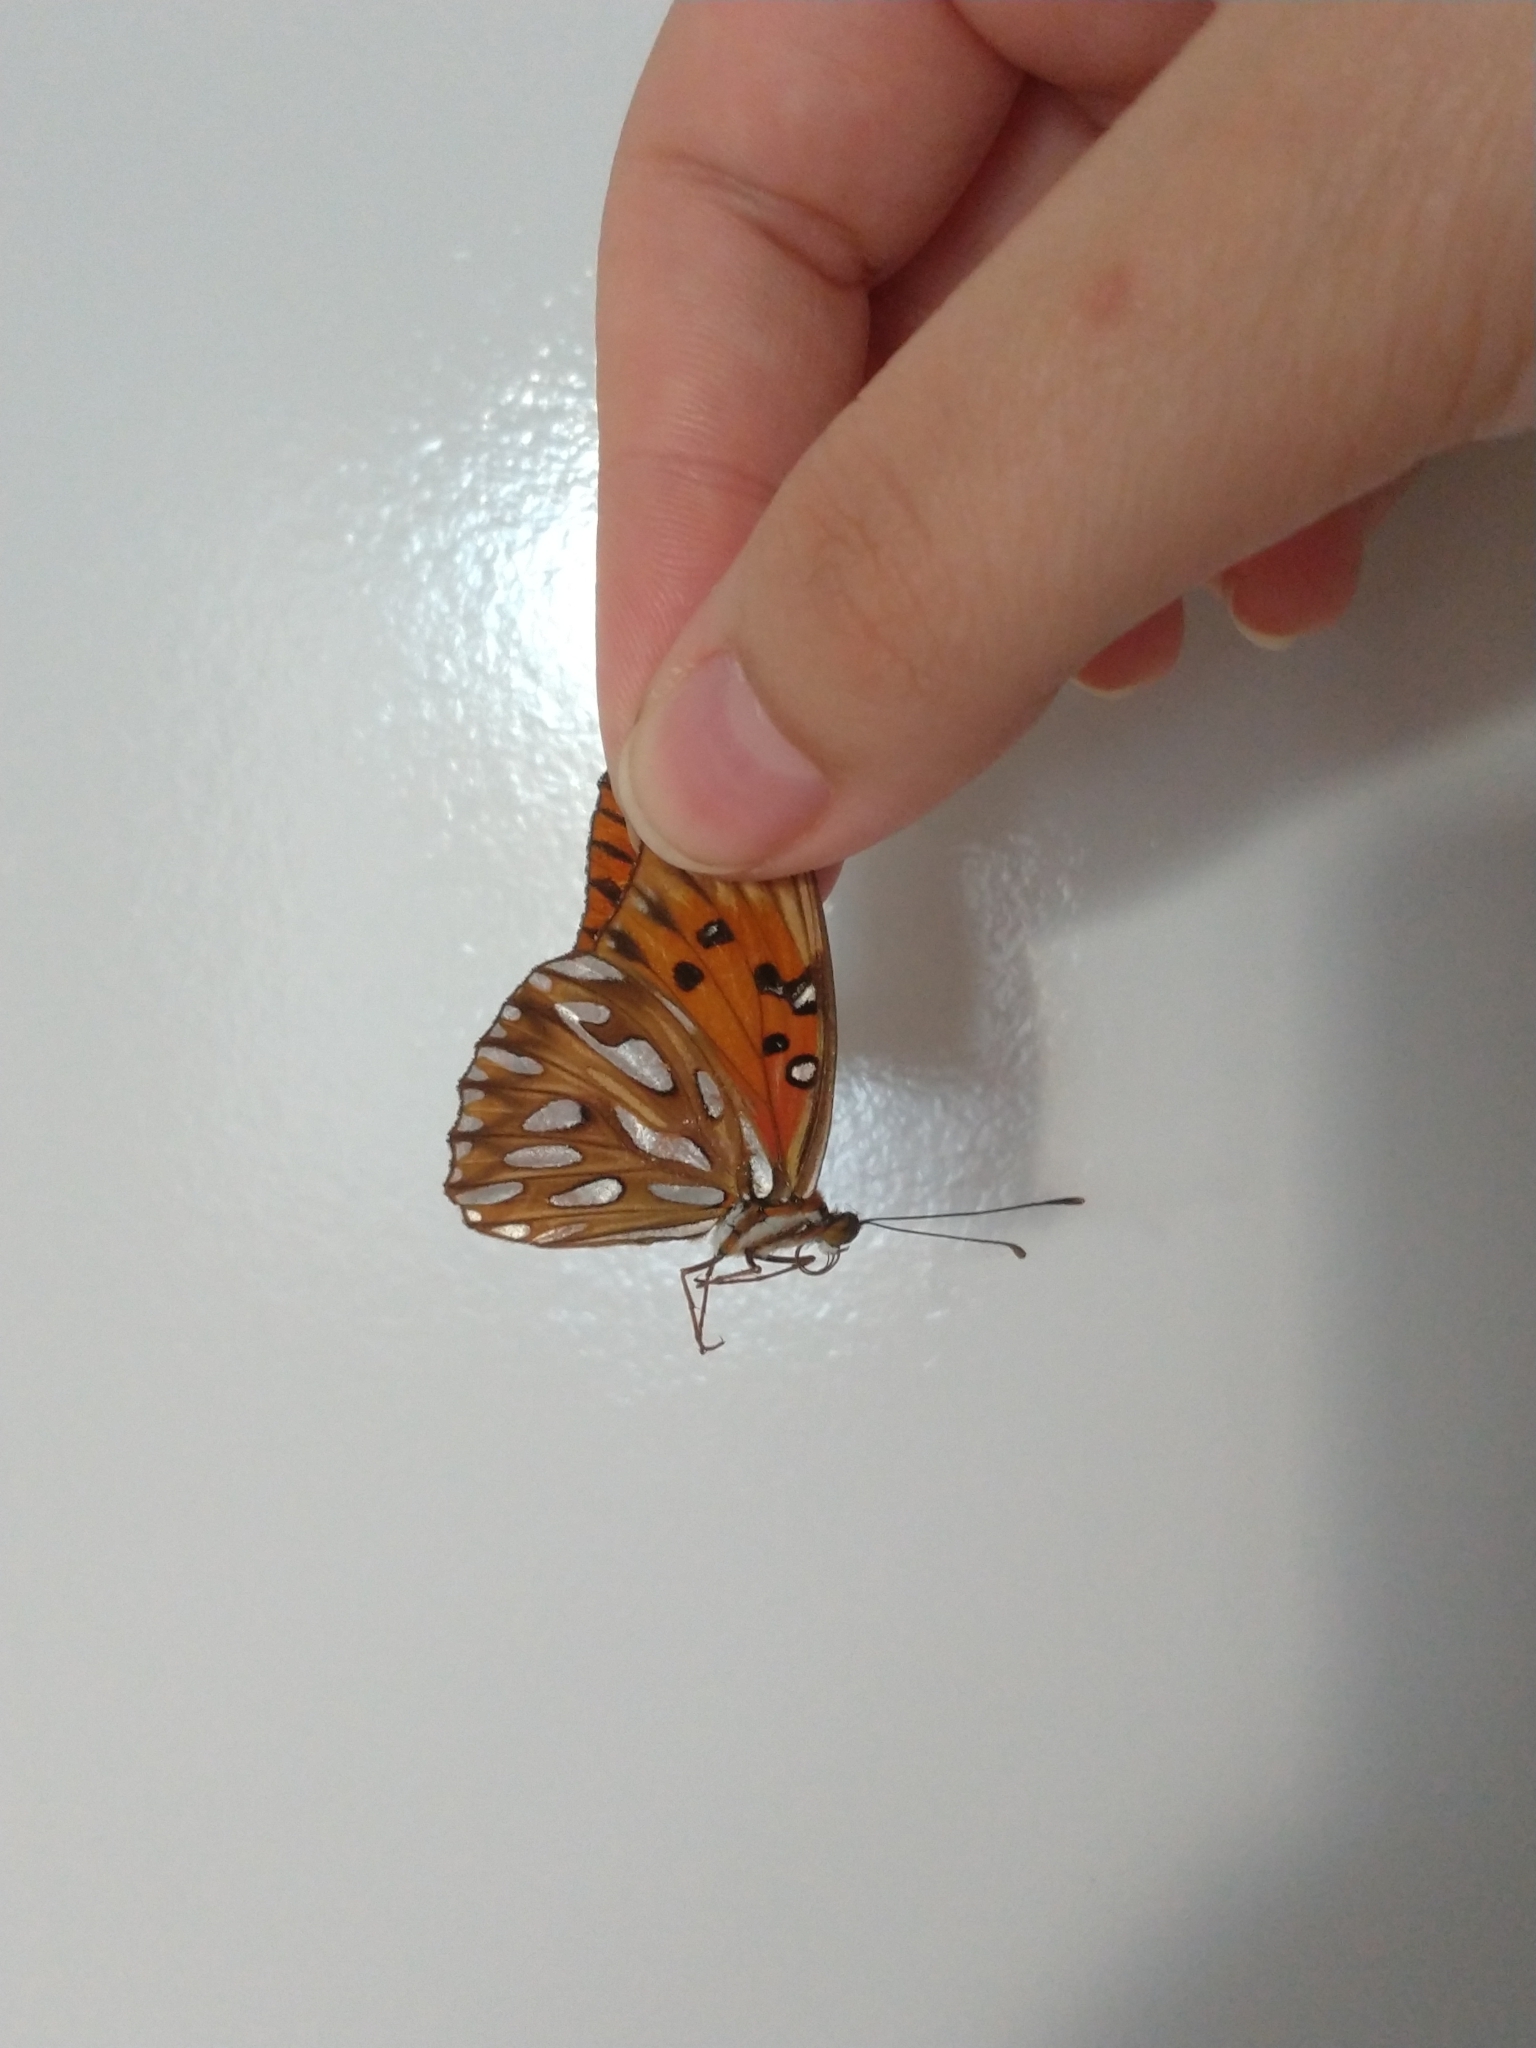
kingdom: Animalia
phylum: Arthropoda
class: Insecta
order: Lepidoptera
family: Nymphalidae
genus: Dione
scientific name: Dione vanillae
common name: Gulf fritillary
